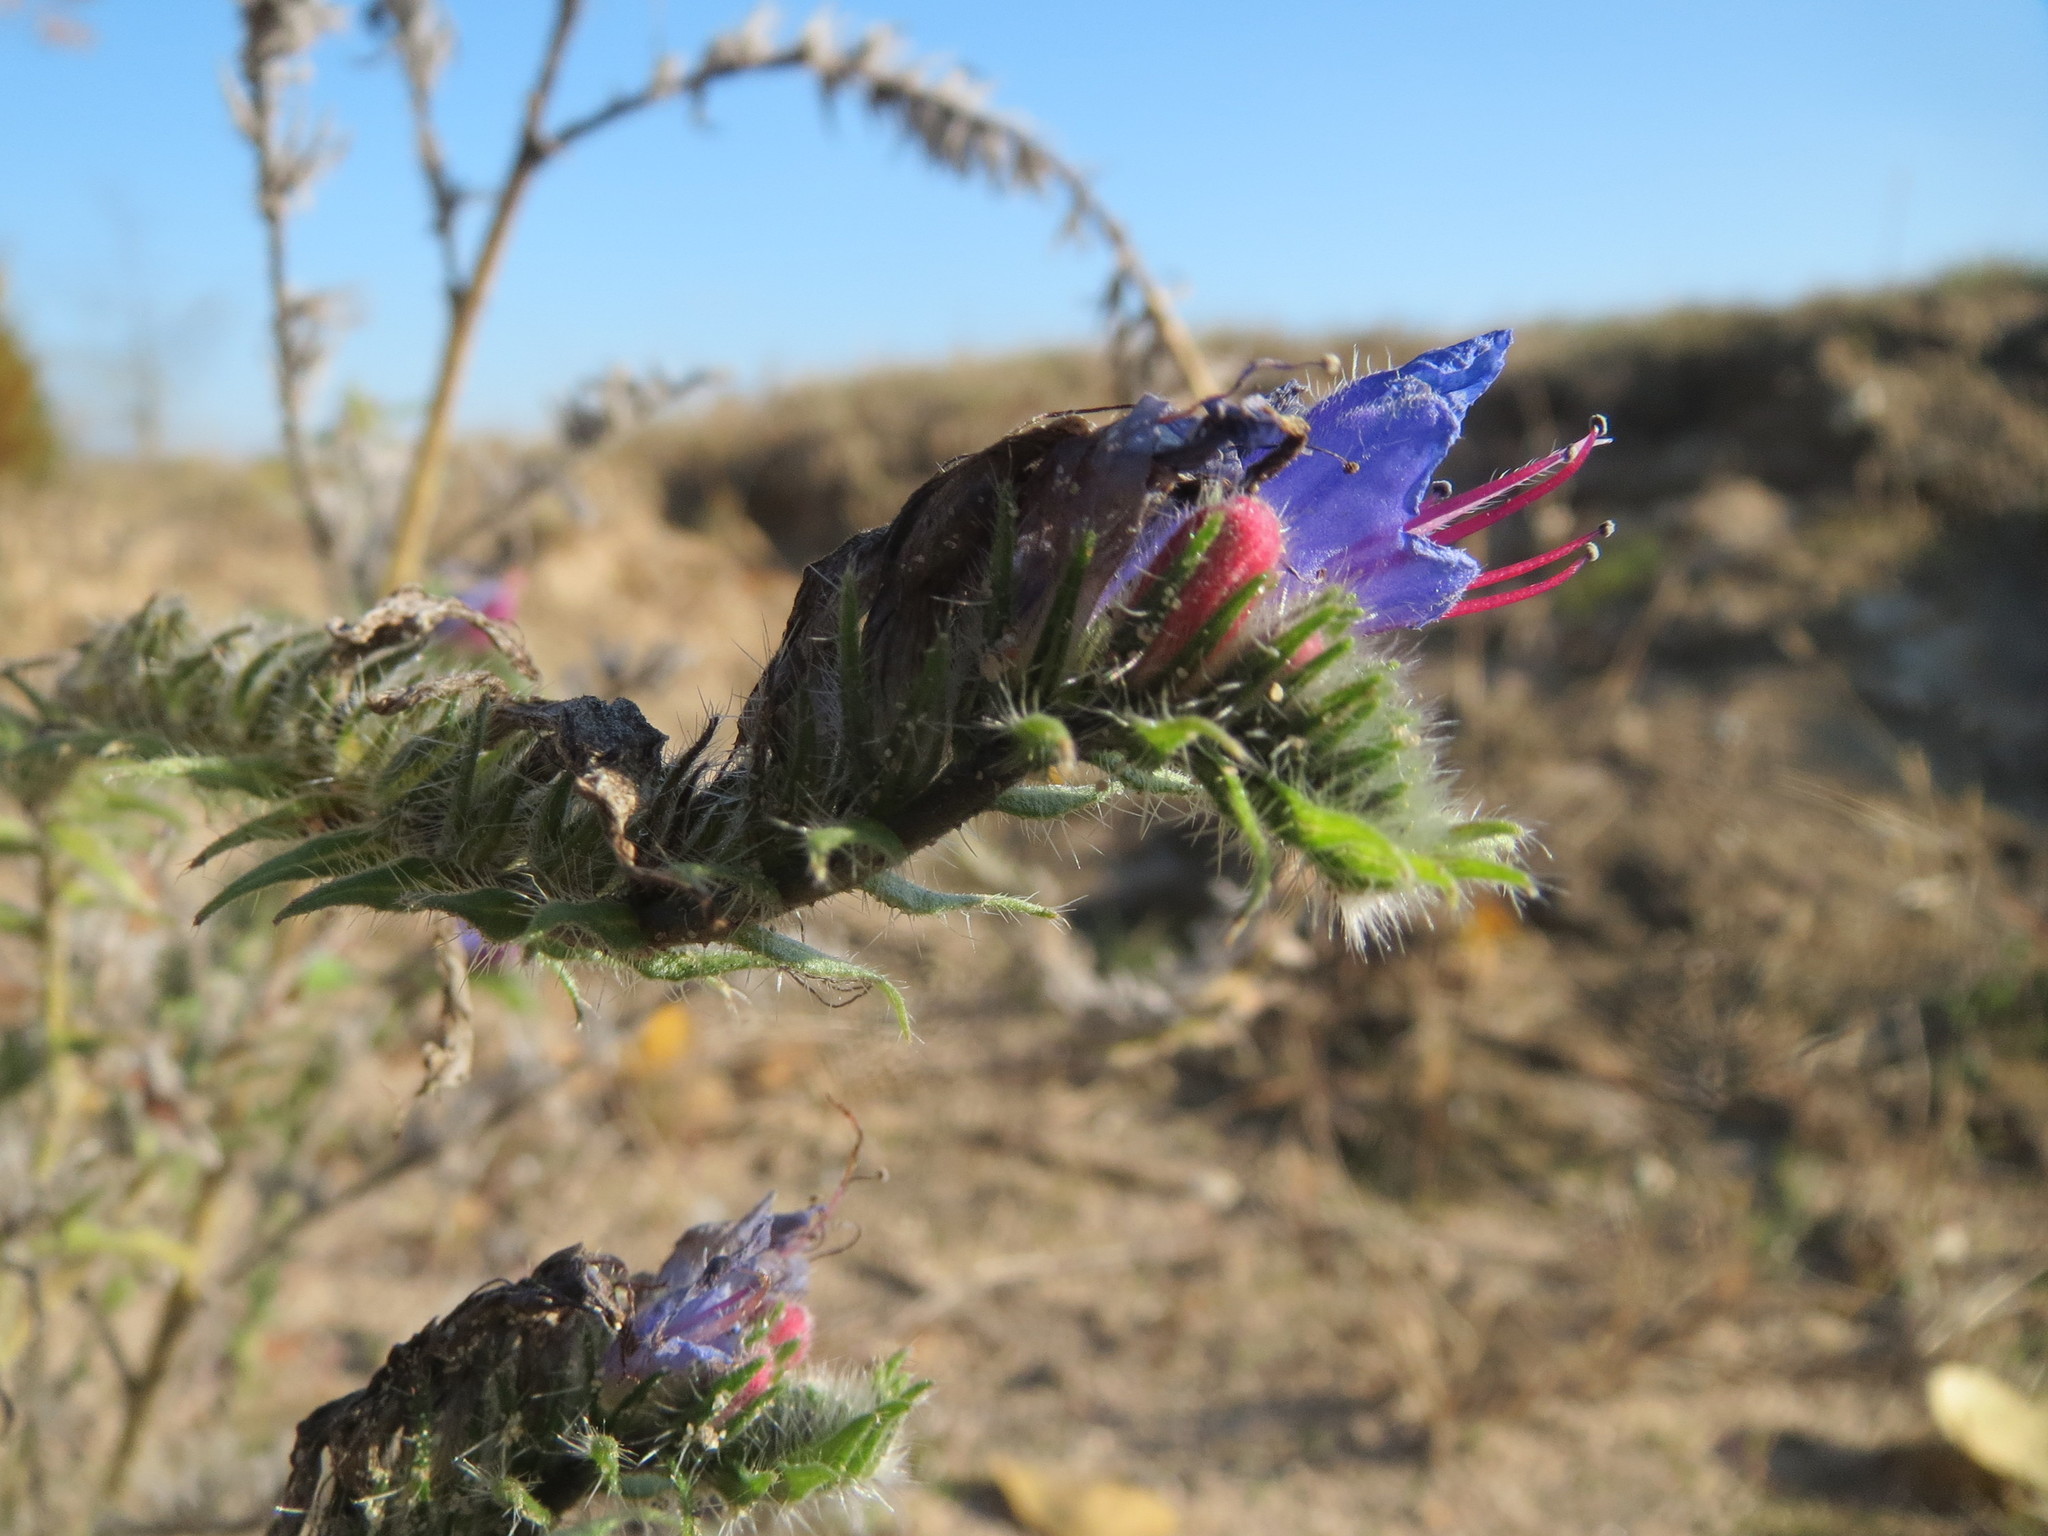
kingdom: Plantae
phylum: Tracheophyta
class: Magnoliopsida
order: Boraginales
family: Boraginaceae
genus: Echium
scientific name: Echium vulgare
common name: Common viper's bugloss
